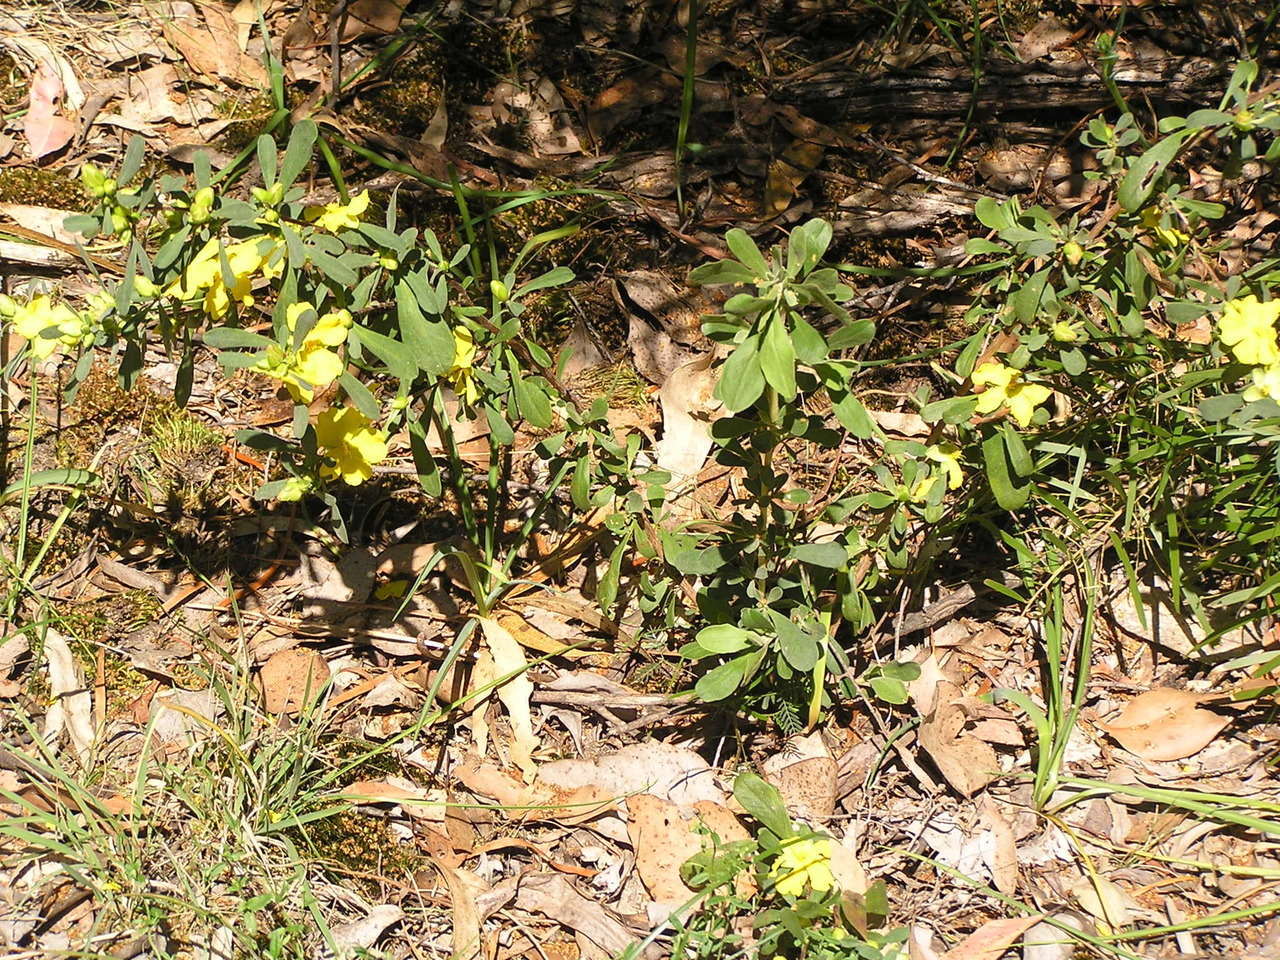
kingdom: Plantae
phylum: Tracheophyta
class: Magnoliopsida
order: Dilleniales
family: Dilleniaceae
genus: Hibbertia
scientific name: Hibbertia obtusifolia
